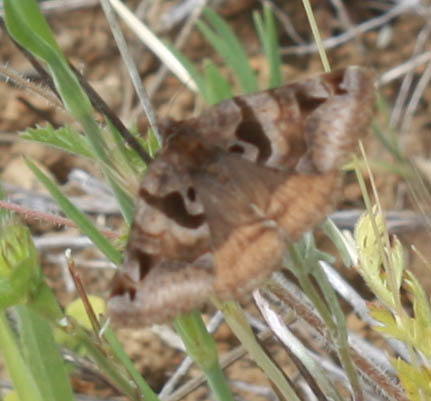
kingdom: Animalia
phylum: Arthropoda
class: Insecta
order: Lepidoptera
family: Erebidae
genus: Euclidia
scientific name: Euclidia ardita
